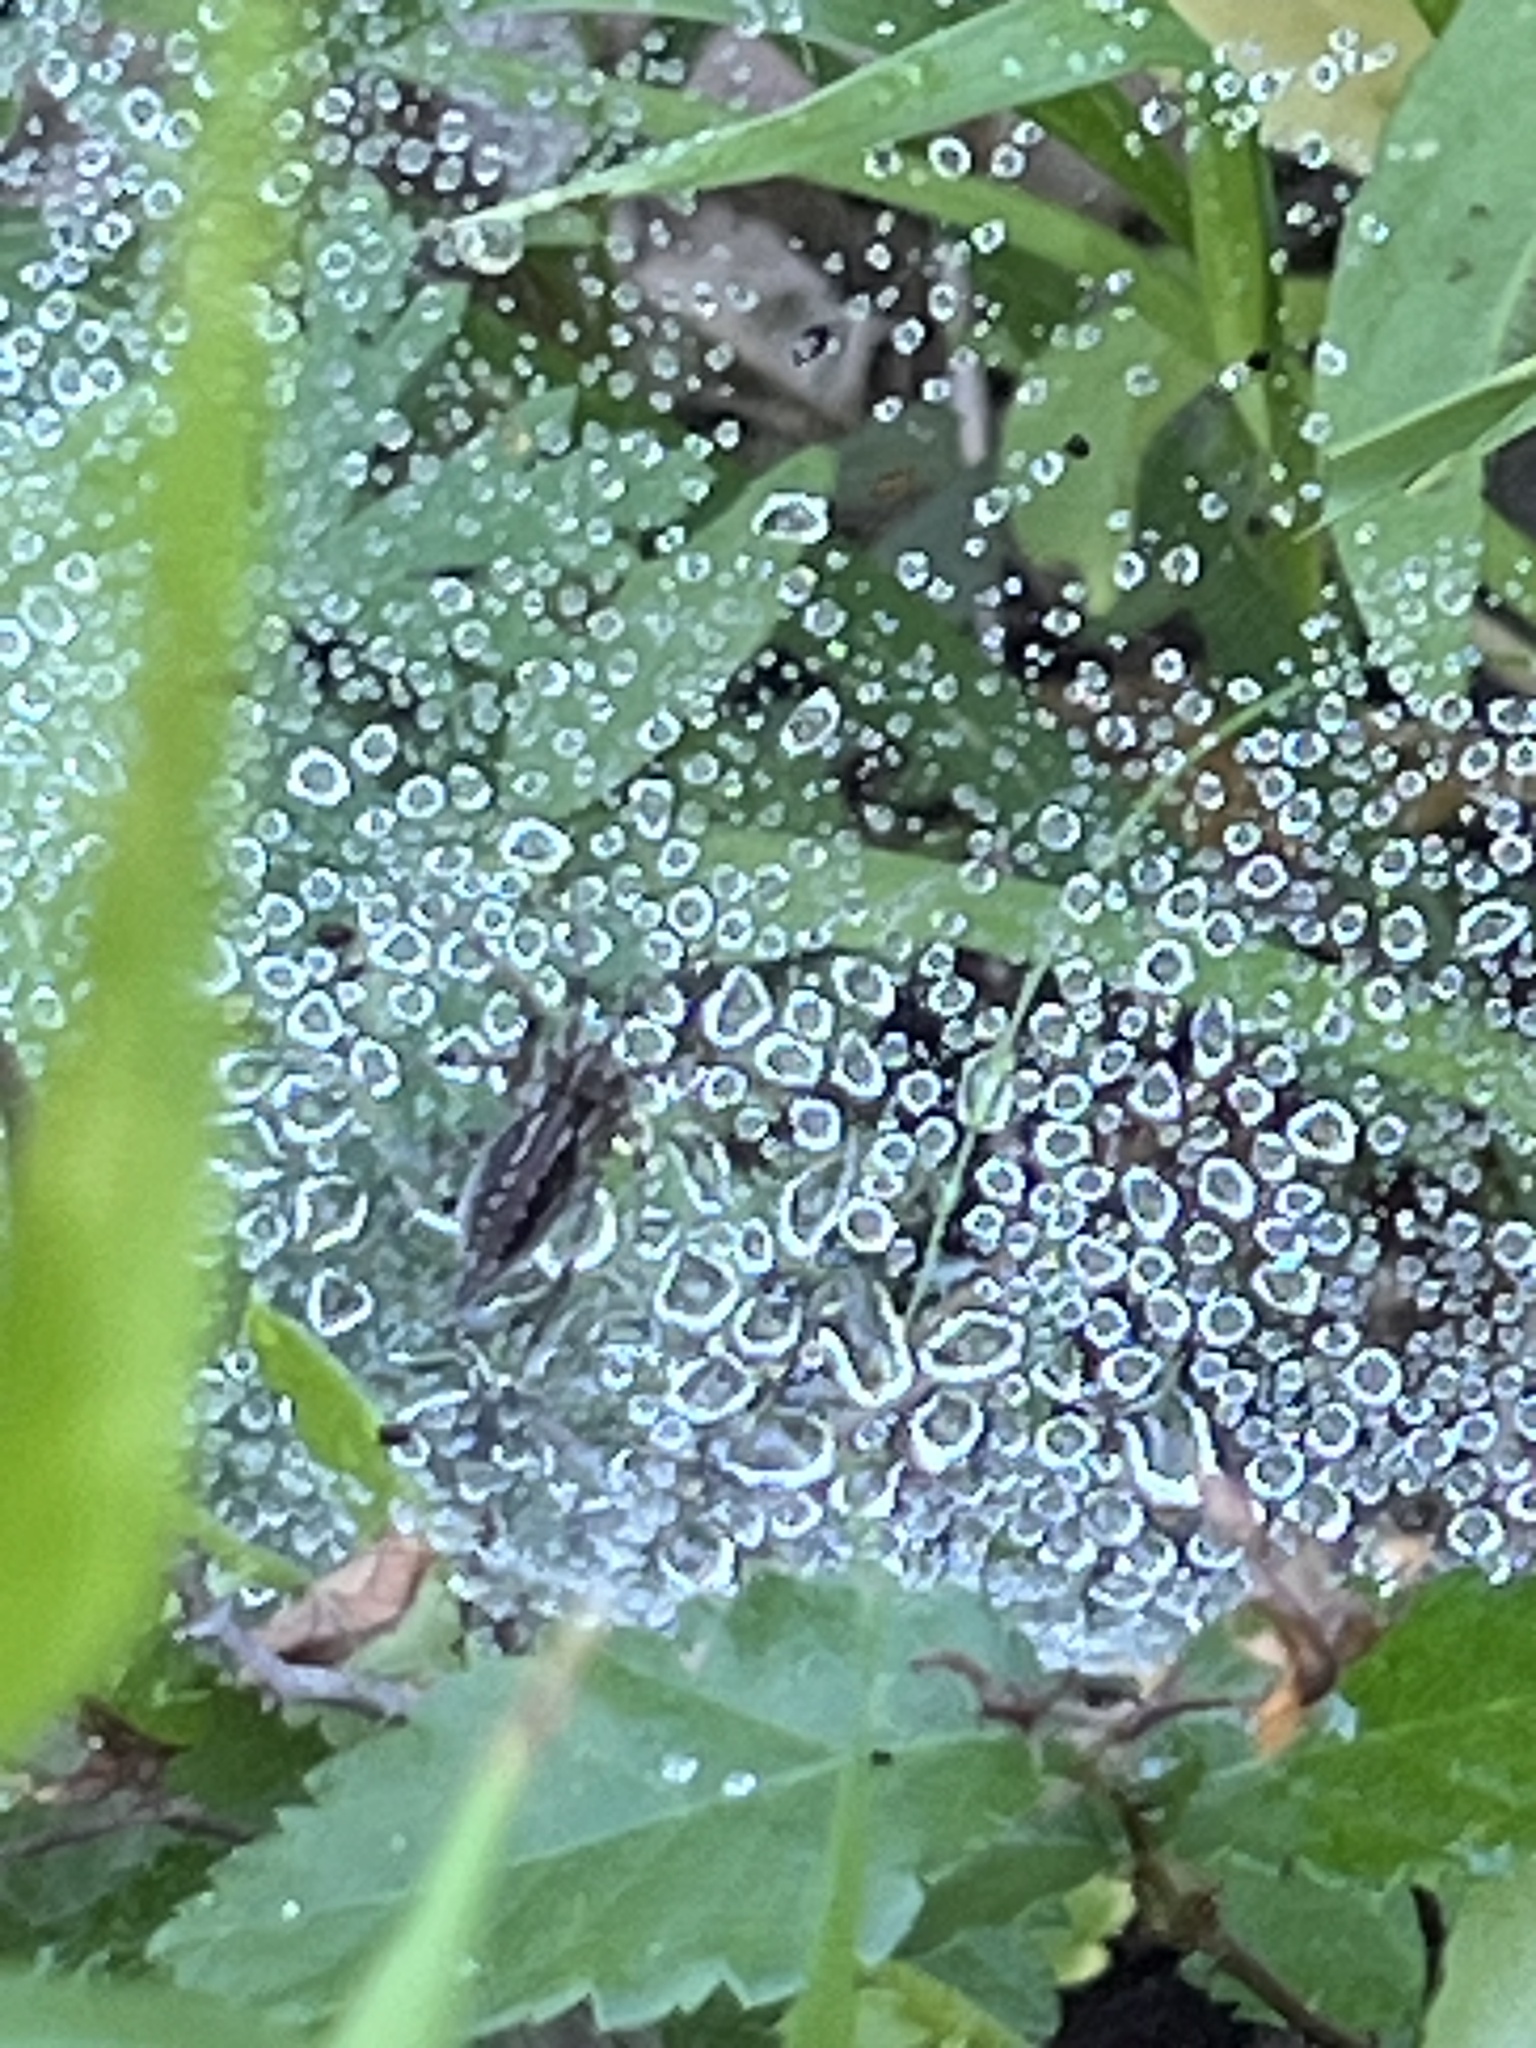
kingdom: Animalia
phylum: Arthropoda
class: Arachnida
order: Araneae
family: Agelenidae
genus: Agelenopsis
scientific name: Agelenopsis
